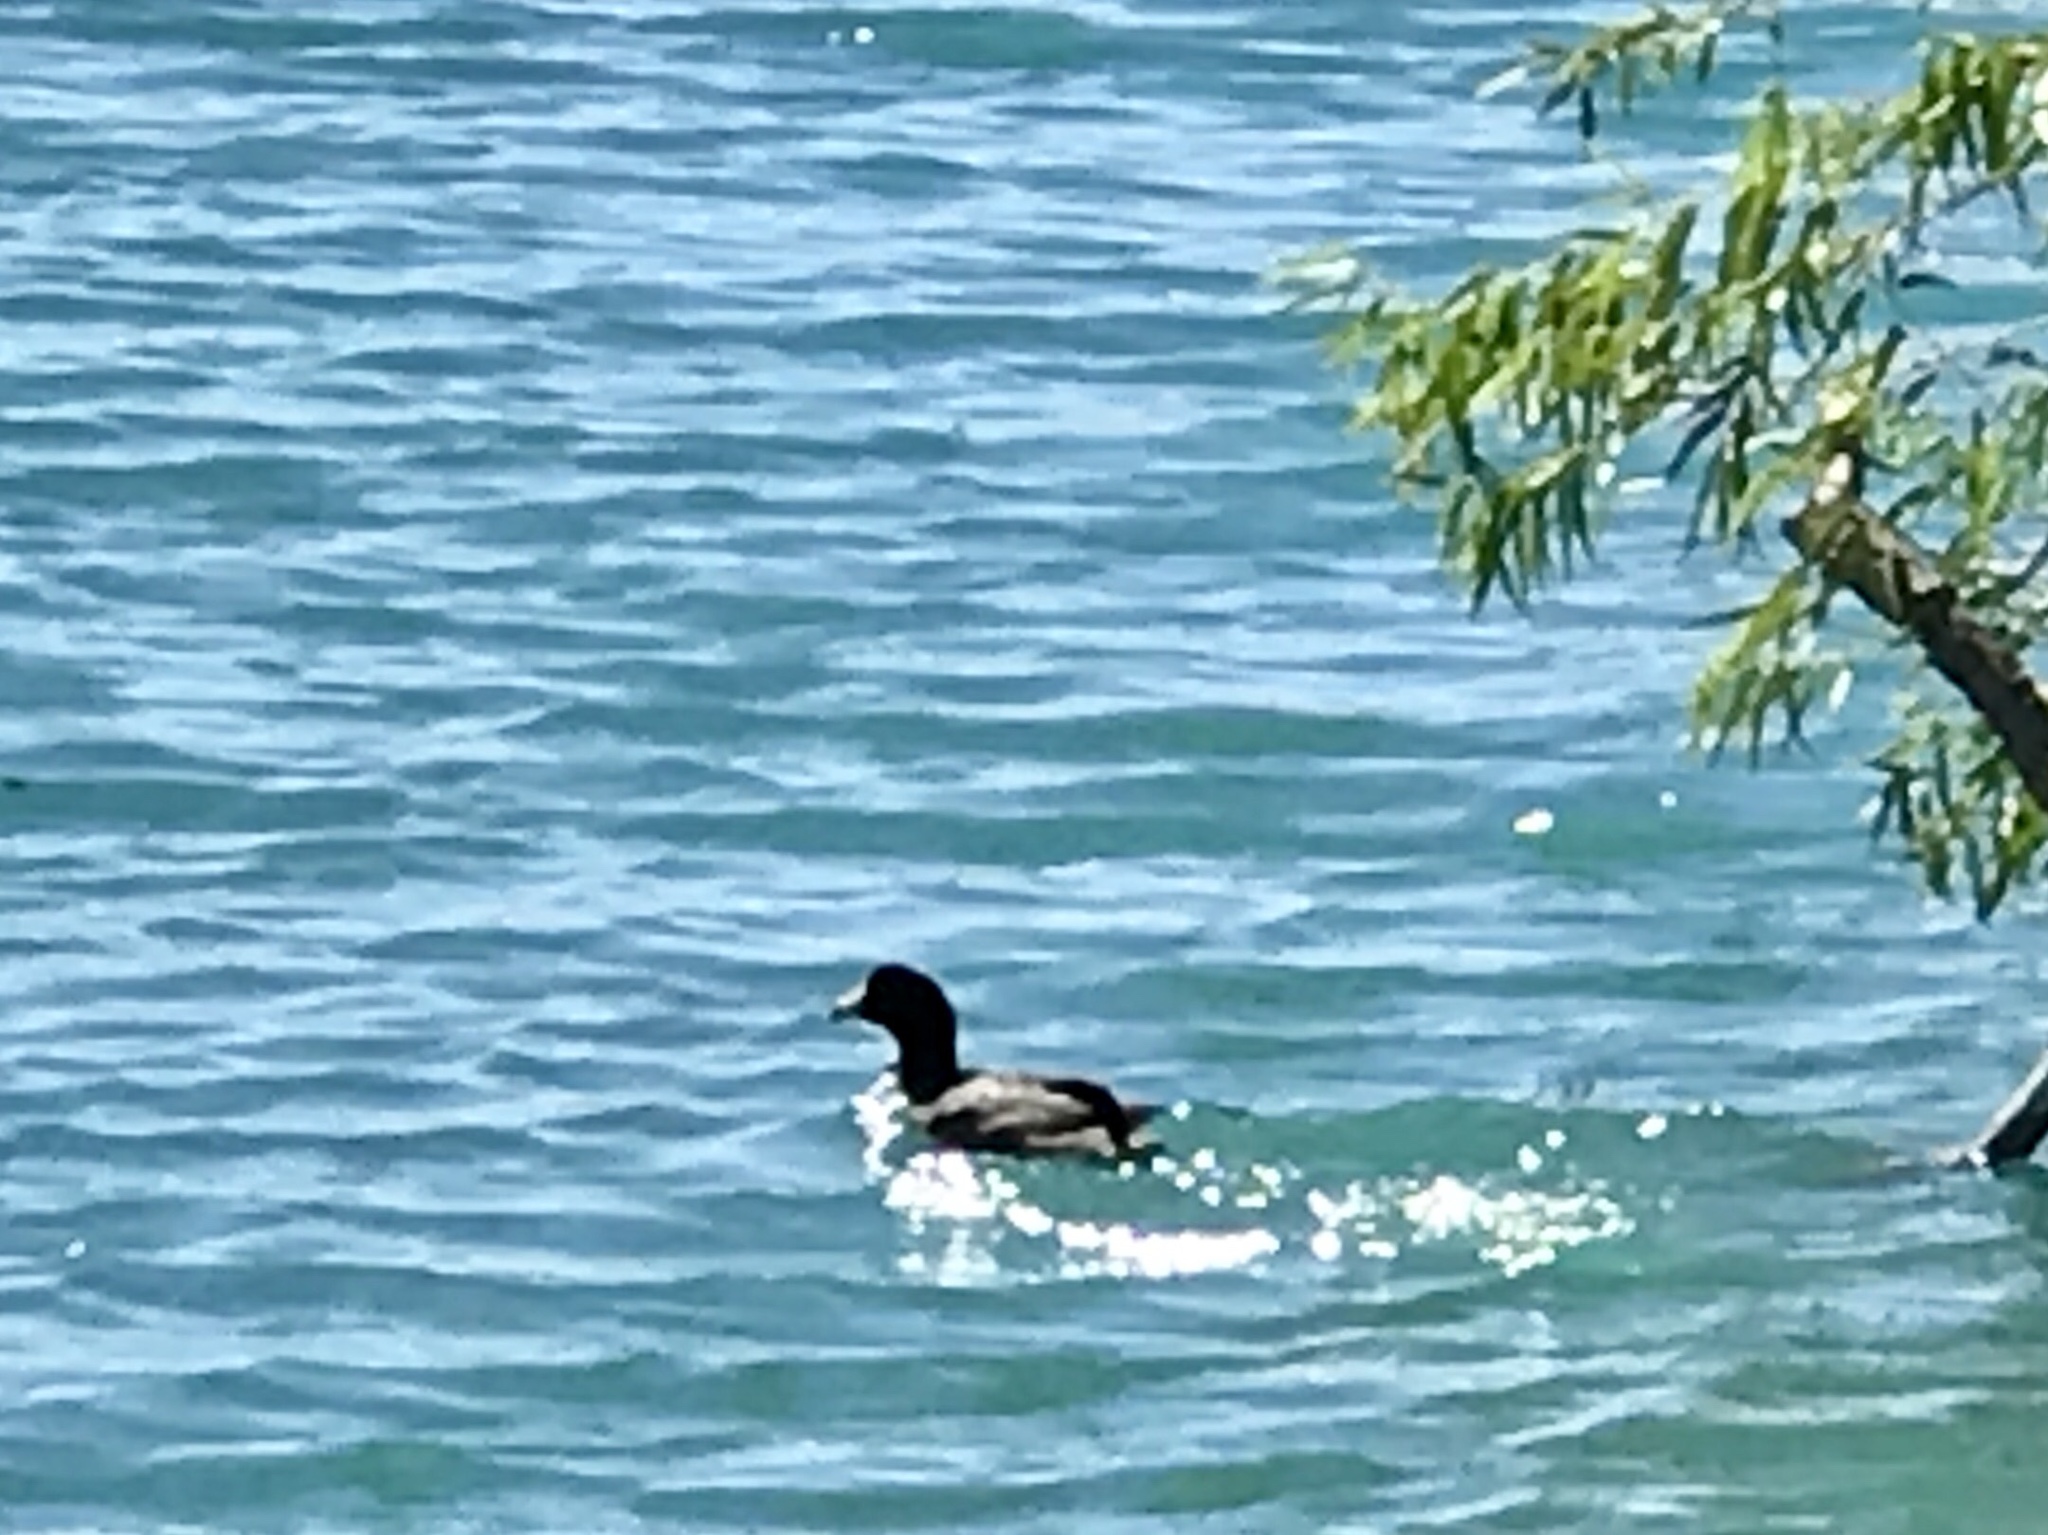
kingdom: Animalia
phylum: Chordata
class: Aves
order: Gruiformes
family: Rallidae
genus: Fulica
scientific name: Fulica americana
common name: American coot
